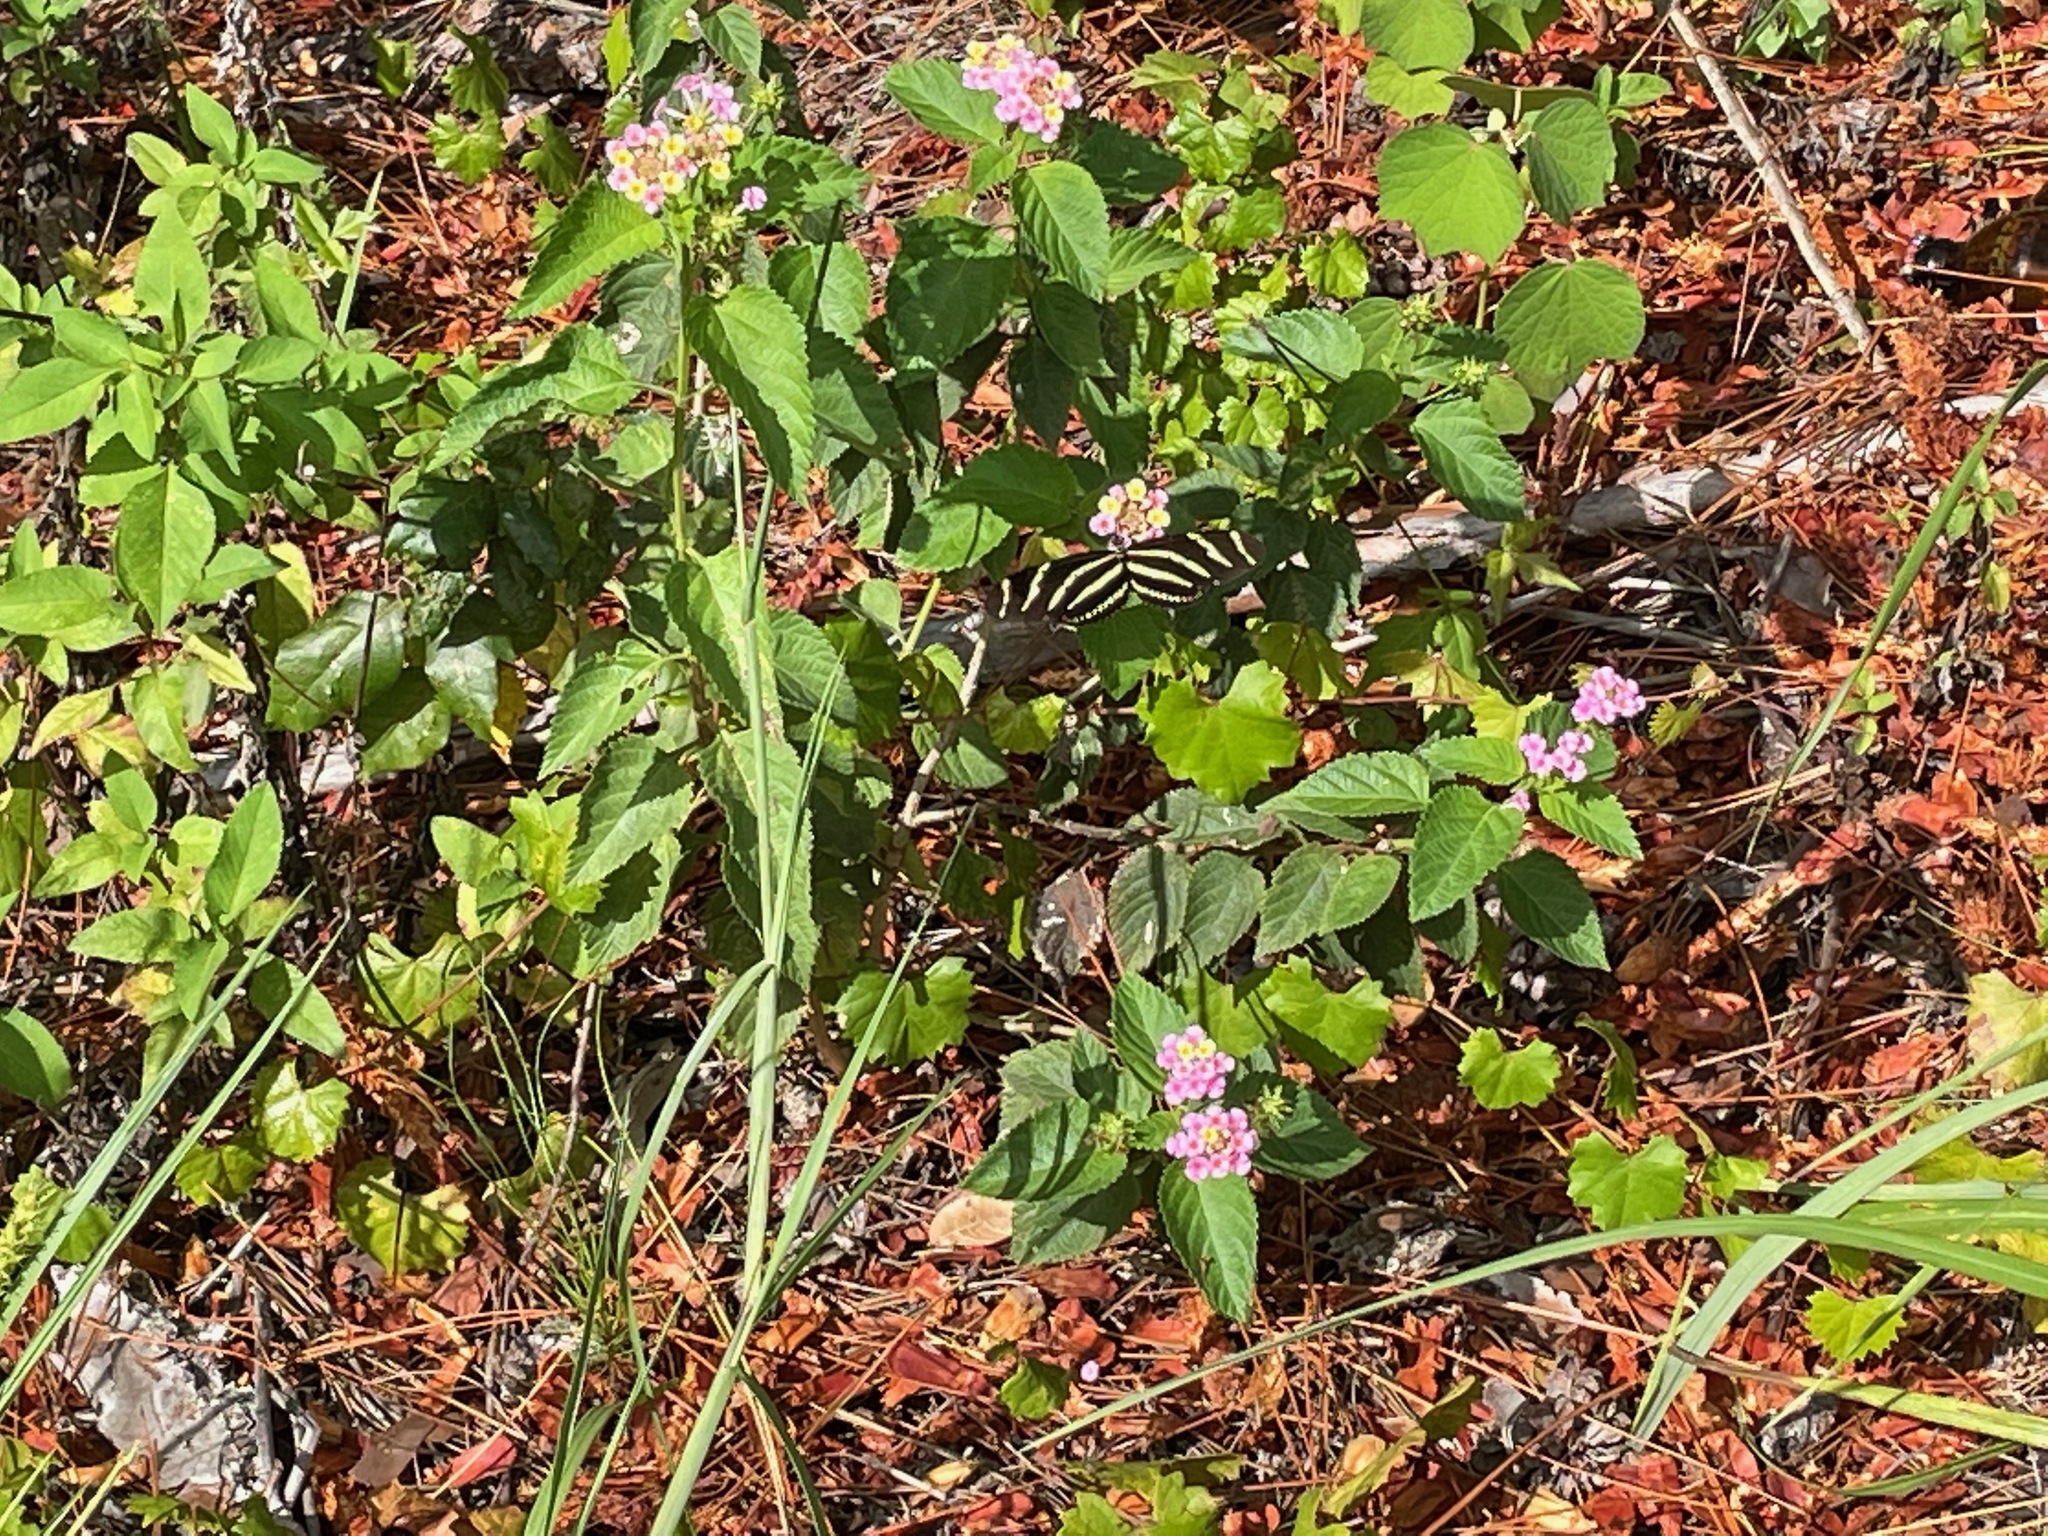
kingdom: Animalia
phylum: Arthropoda
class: Insecta
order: Lepidoptera
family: Nymphalidae
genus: Heliconius
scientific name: Heliconius charithonia
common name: Zebra long wing
